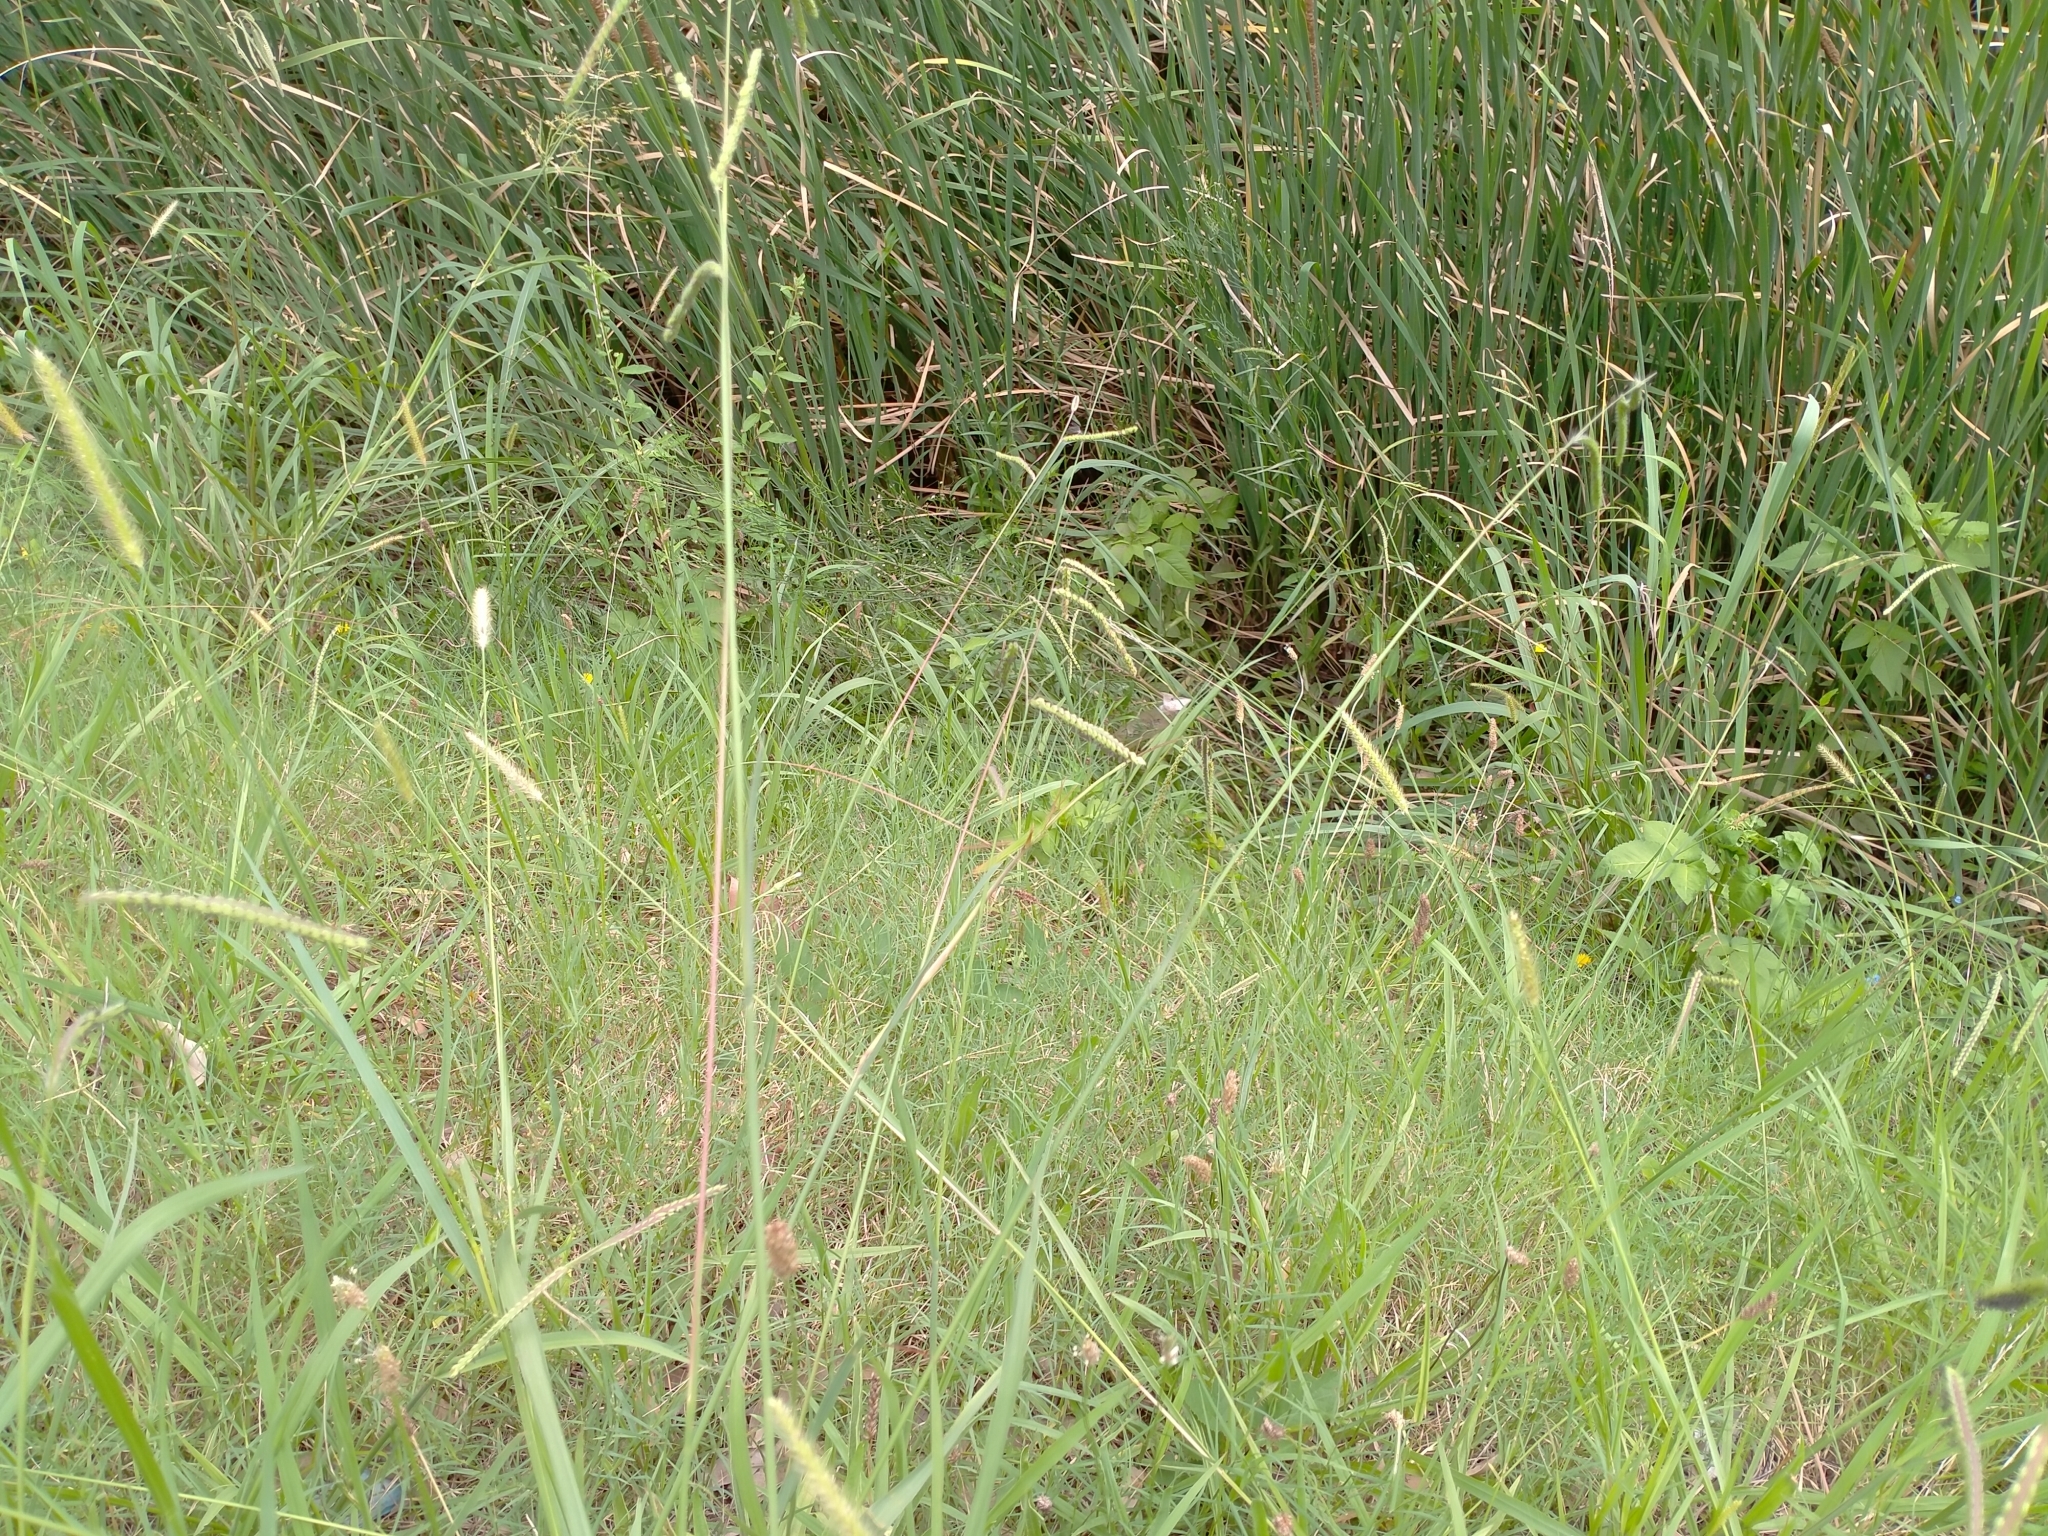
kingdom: Plantae
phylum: Tracheophyta
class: Liliopsida
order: Poales
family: Poaceae
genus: Paspalum
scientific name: Paspalum dilatatum
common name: Dallisgrass
